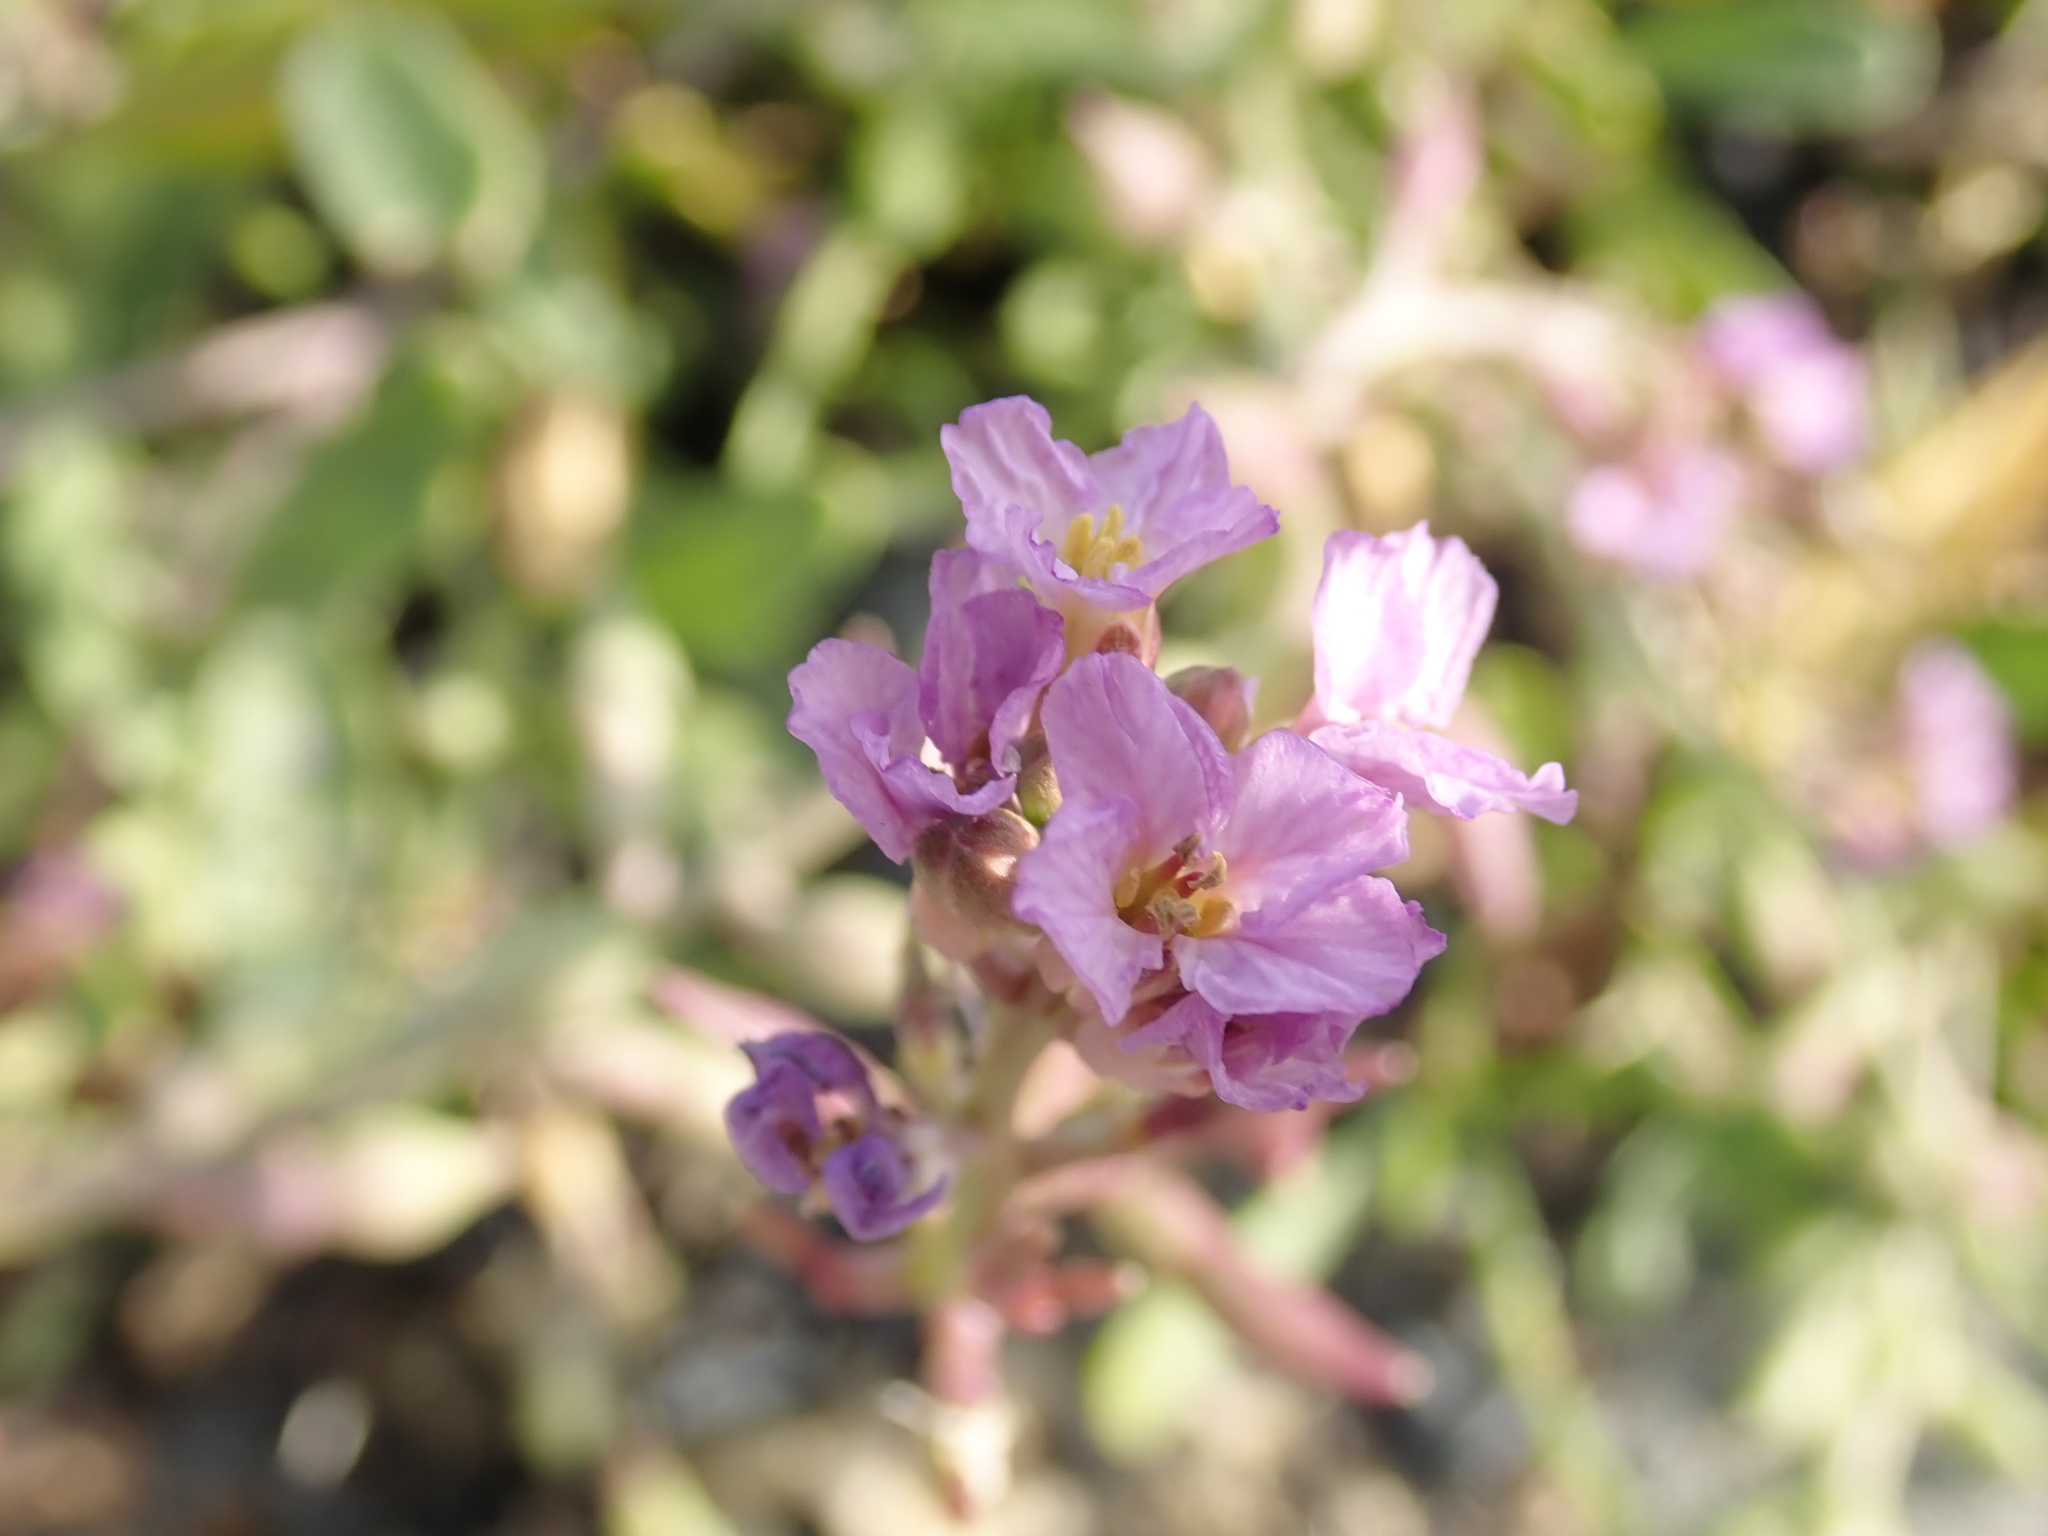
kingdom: Plantae
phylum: Tracheophyta
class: Magnoliopsida
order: Brassicales
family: Brassicaceae
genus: Cakile
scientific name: Cakile maritima
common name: Sea rocket
